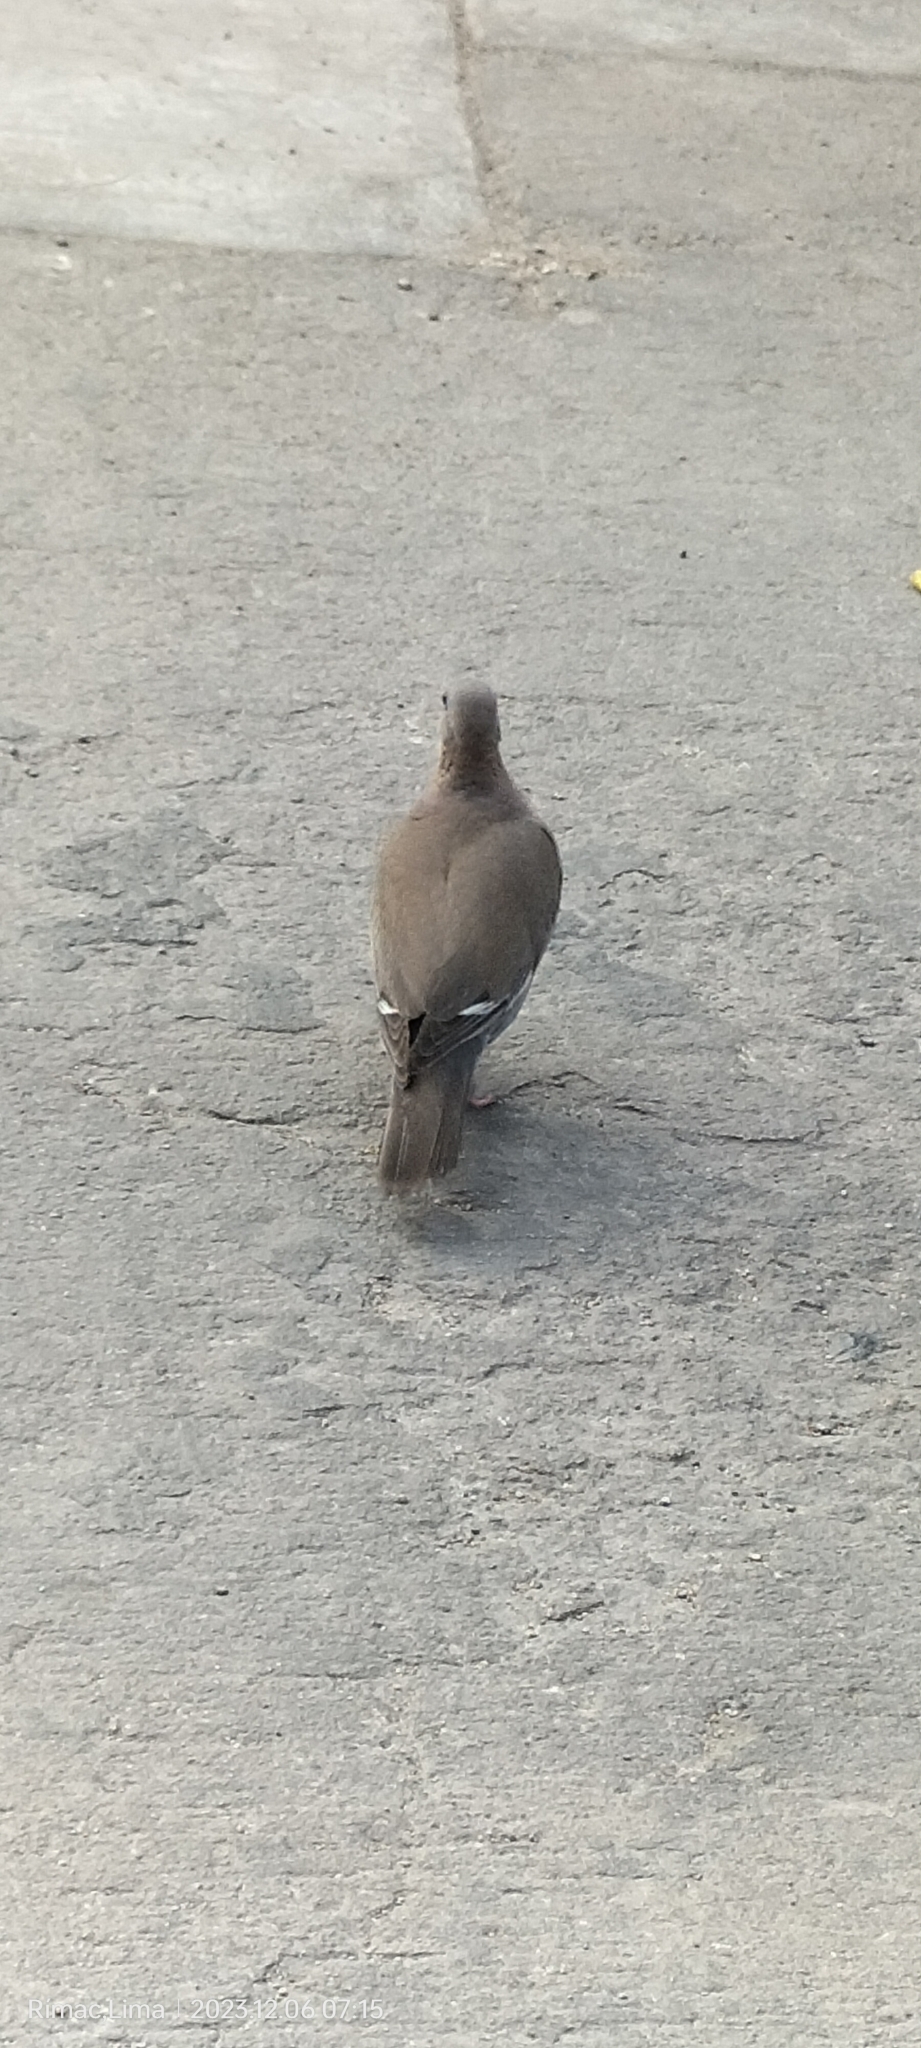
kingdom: Animalia
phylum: Chordata
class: Aves
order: Columbiformes
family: Columbidae
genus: Zenaida
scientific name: Zenaida meloda
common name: West peruvian dove
